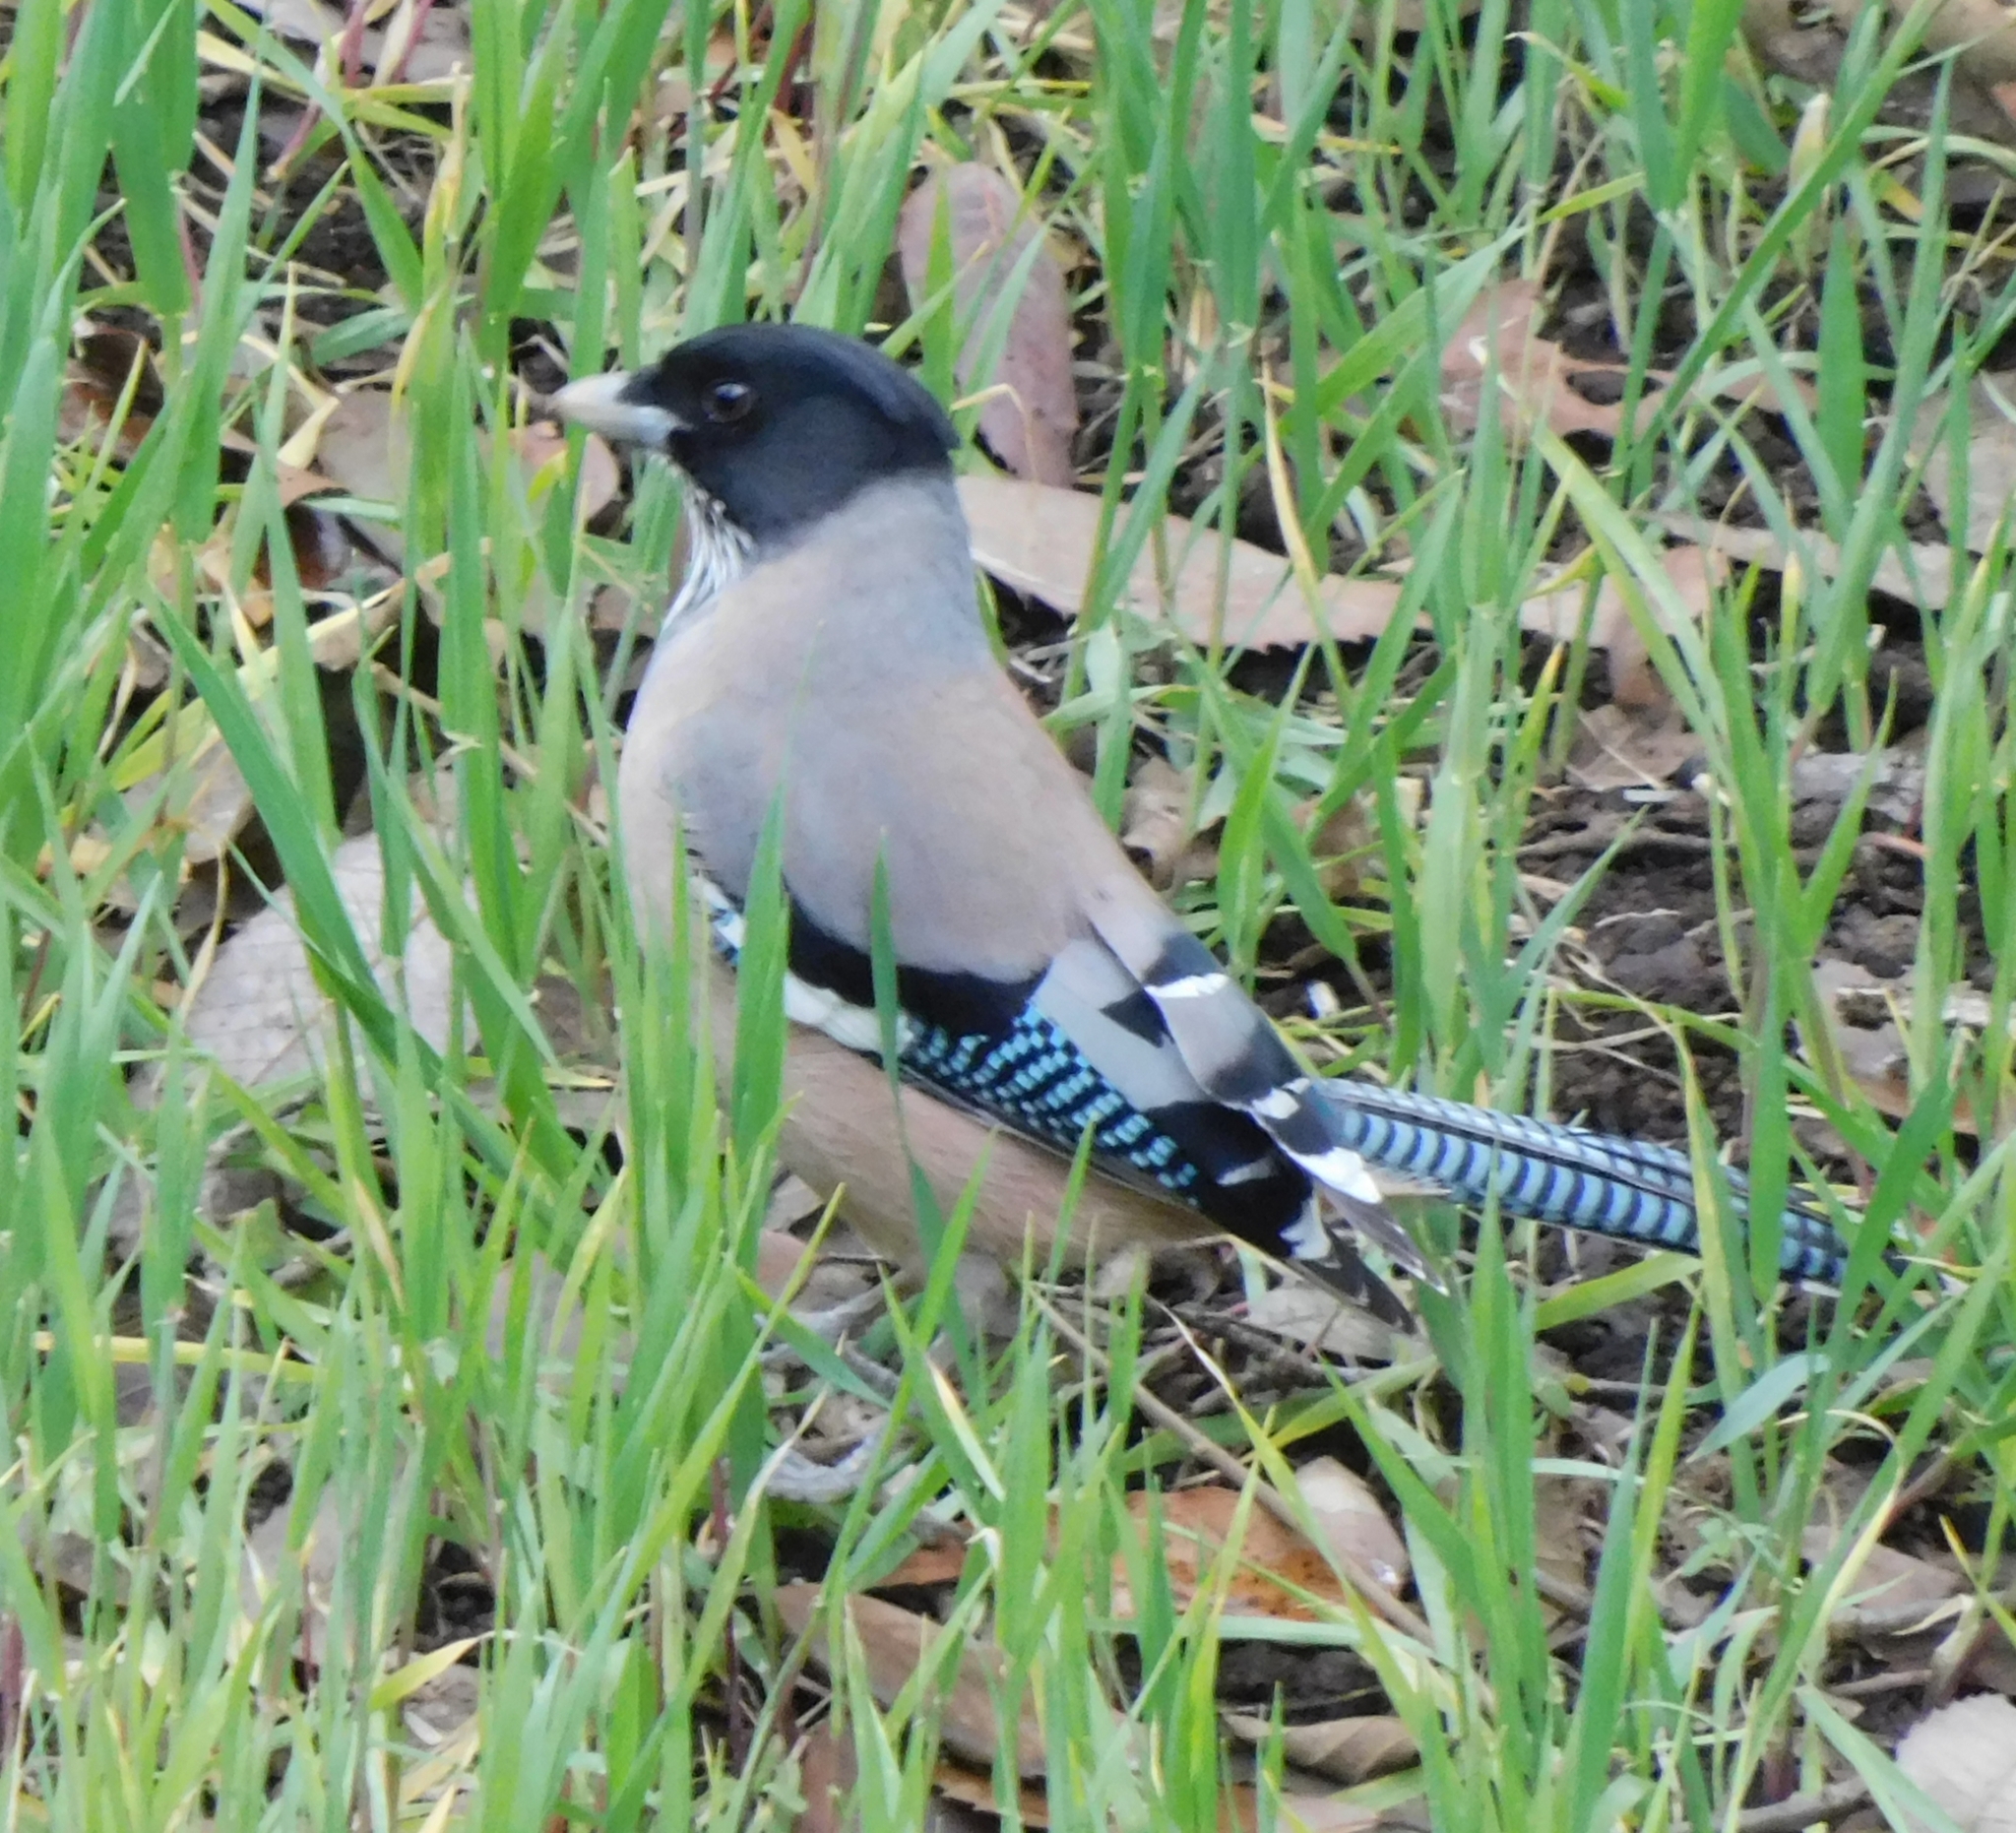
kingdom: Animalia
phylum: Chordata
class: Aves
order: Passeriformes
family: Corvidae
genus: Garrulus
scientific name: Garrulus lanceolatus
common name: Black-headed jay
